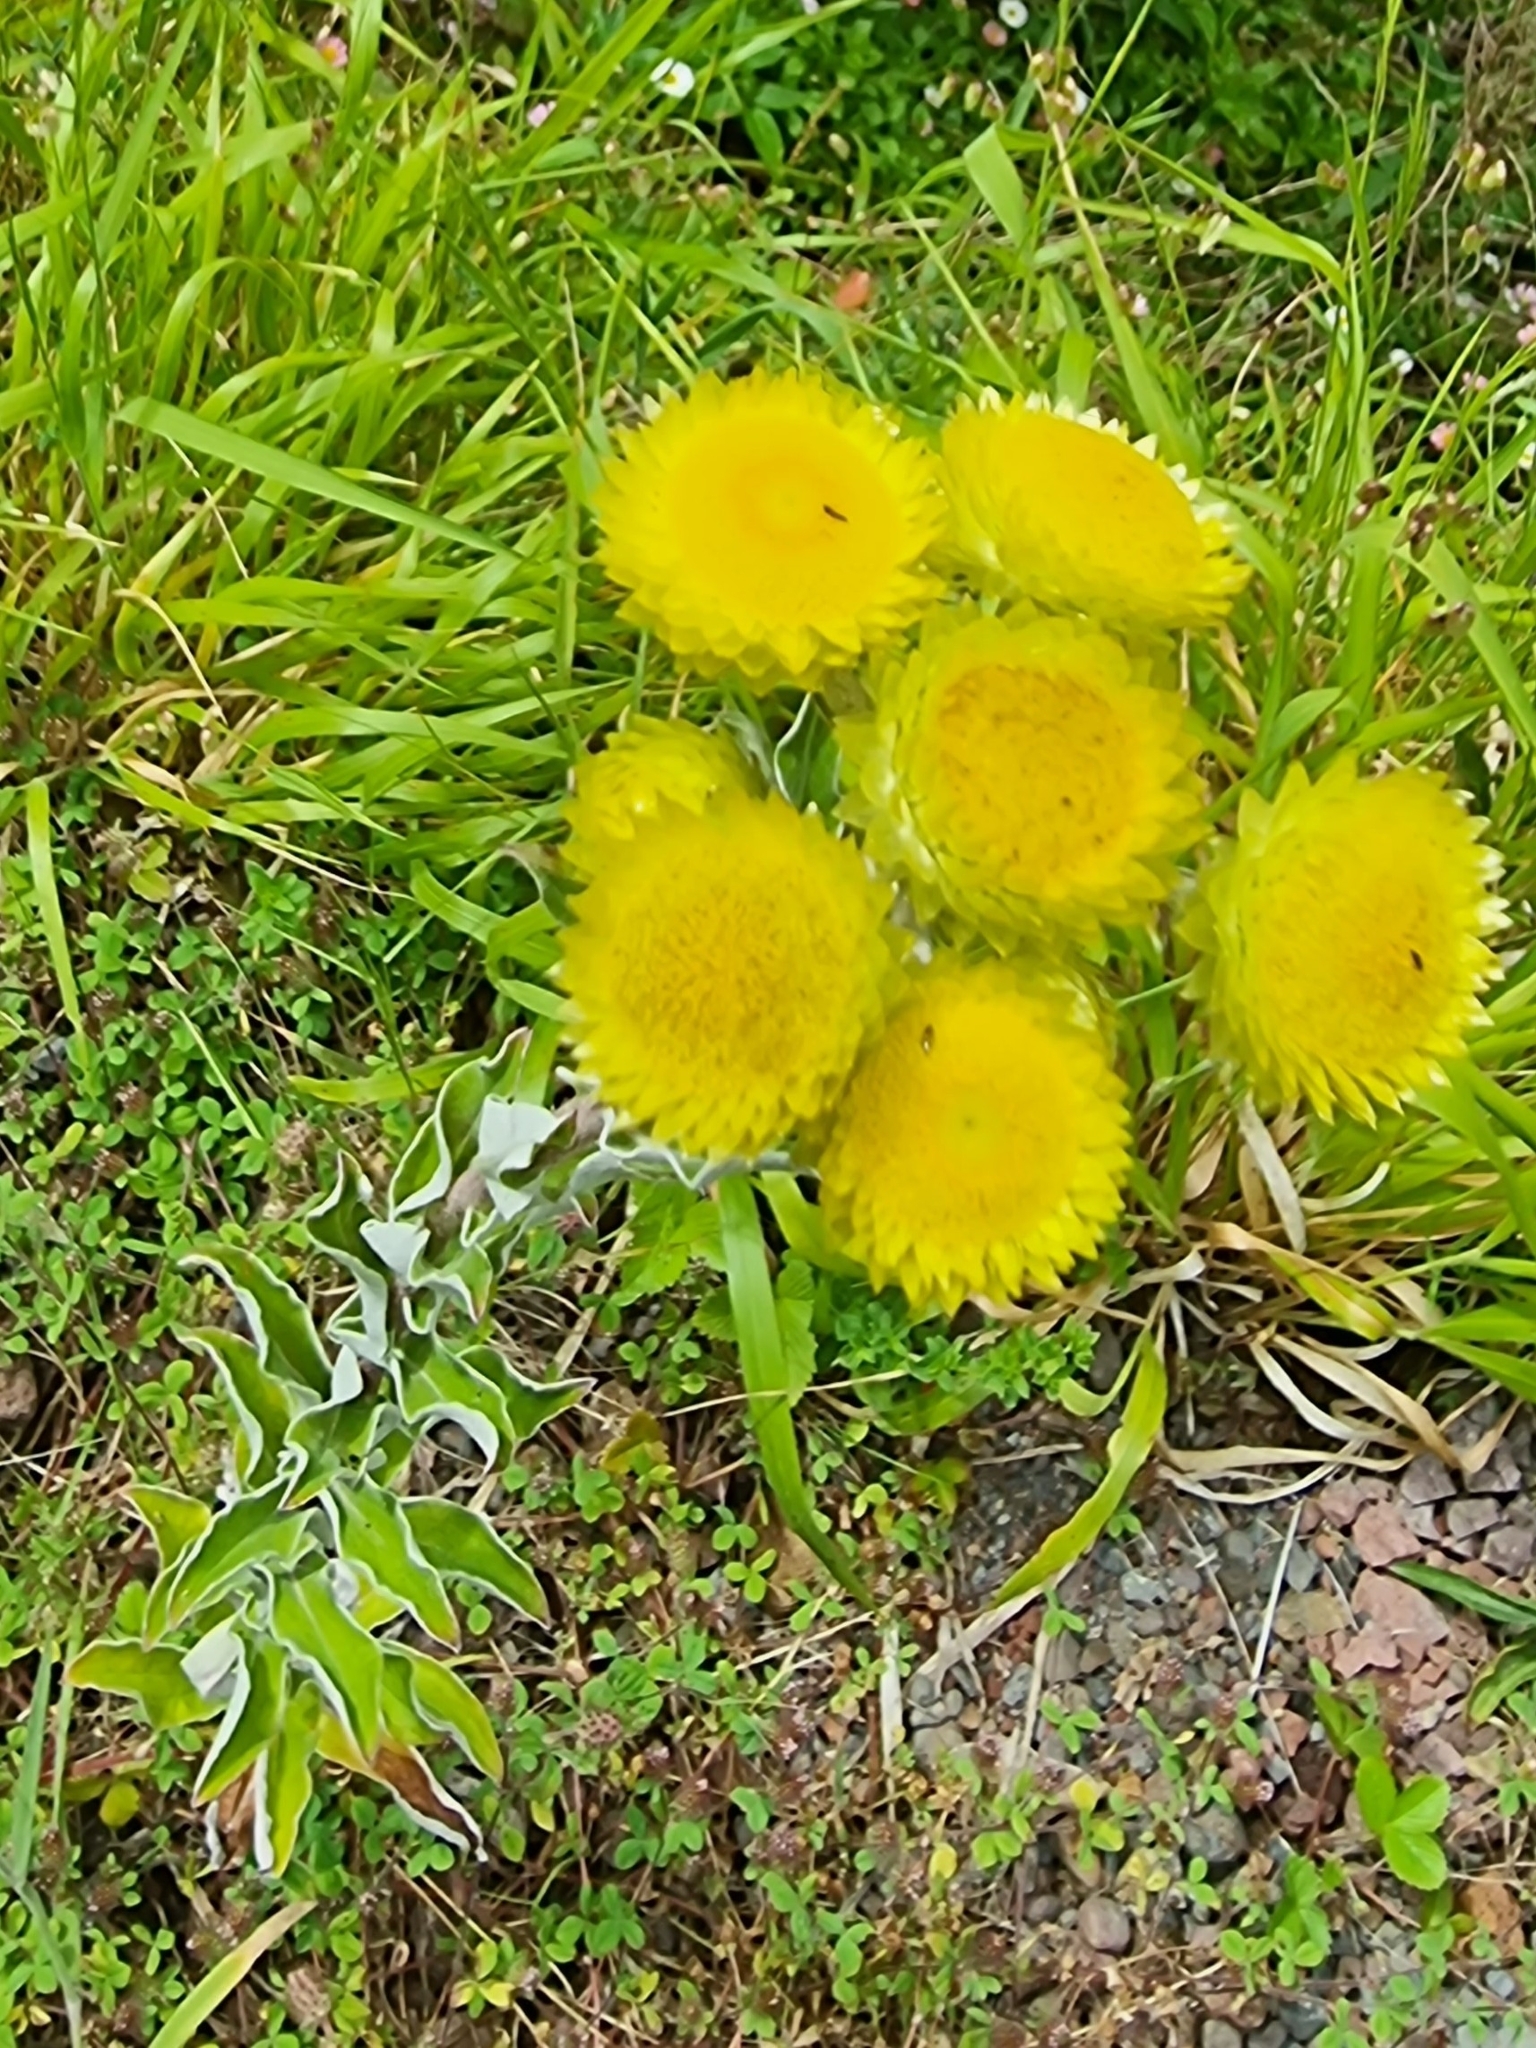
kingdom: Plantae
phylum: Tracheophyta
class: Magnoliopsida
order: Asterales
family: Asteraceae
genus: Helichrysum
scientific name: Helichrysum foetidum
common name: Stinking everlasting
